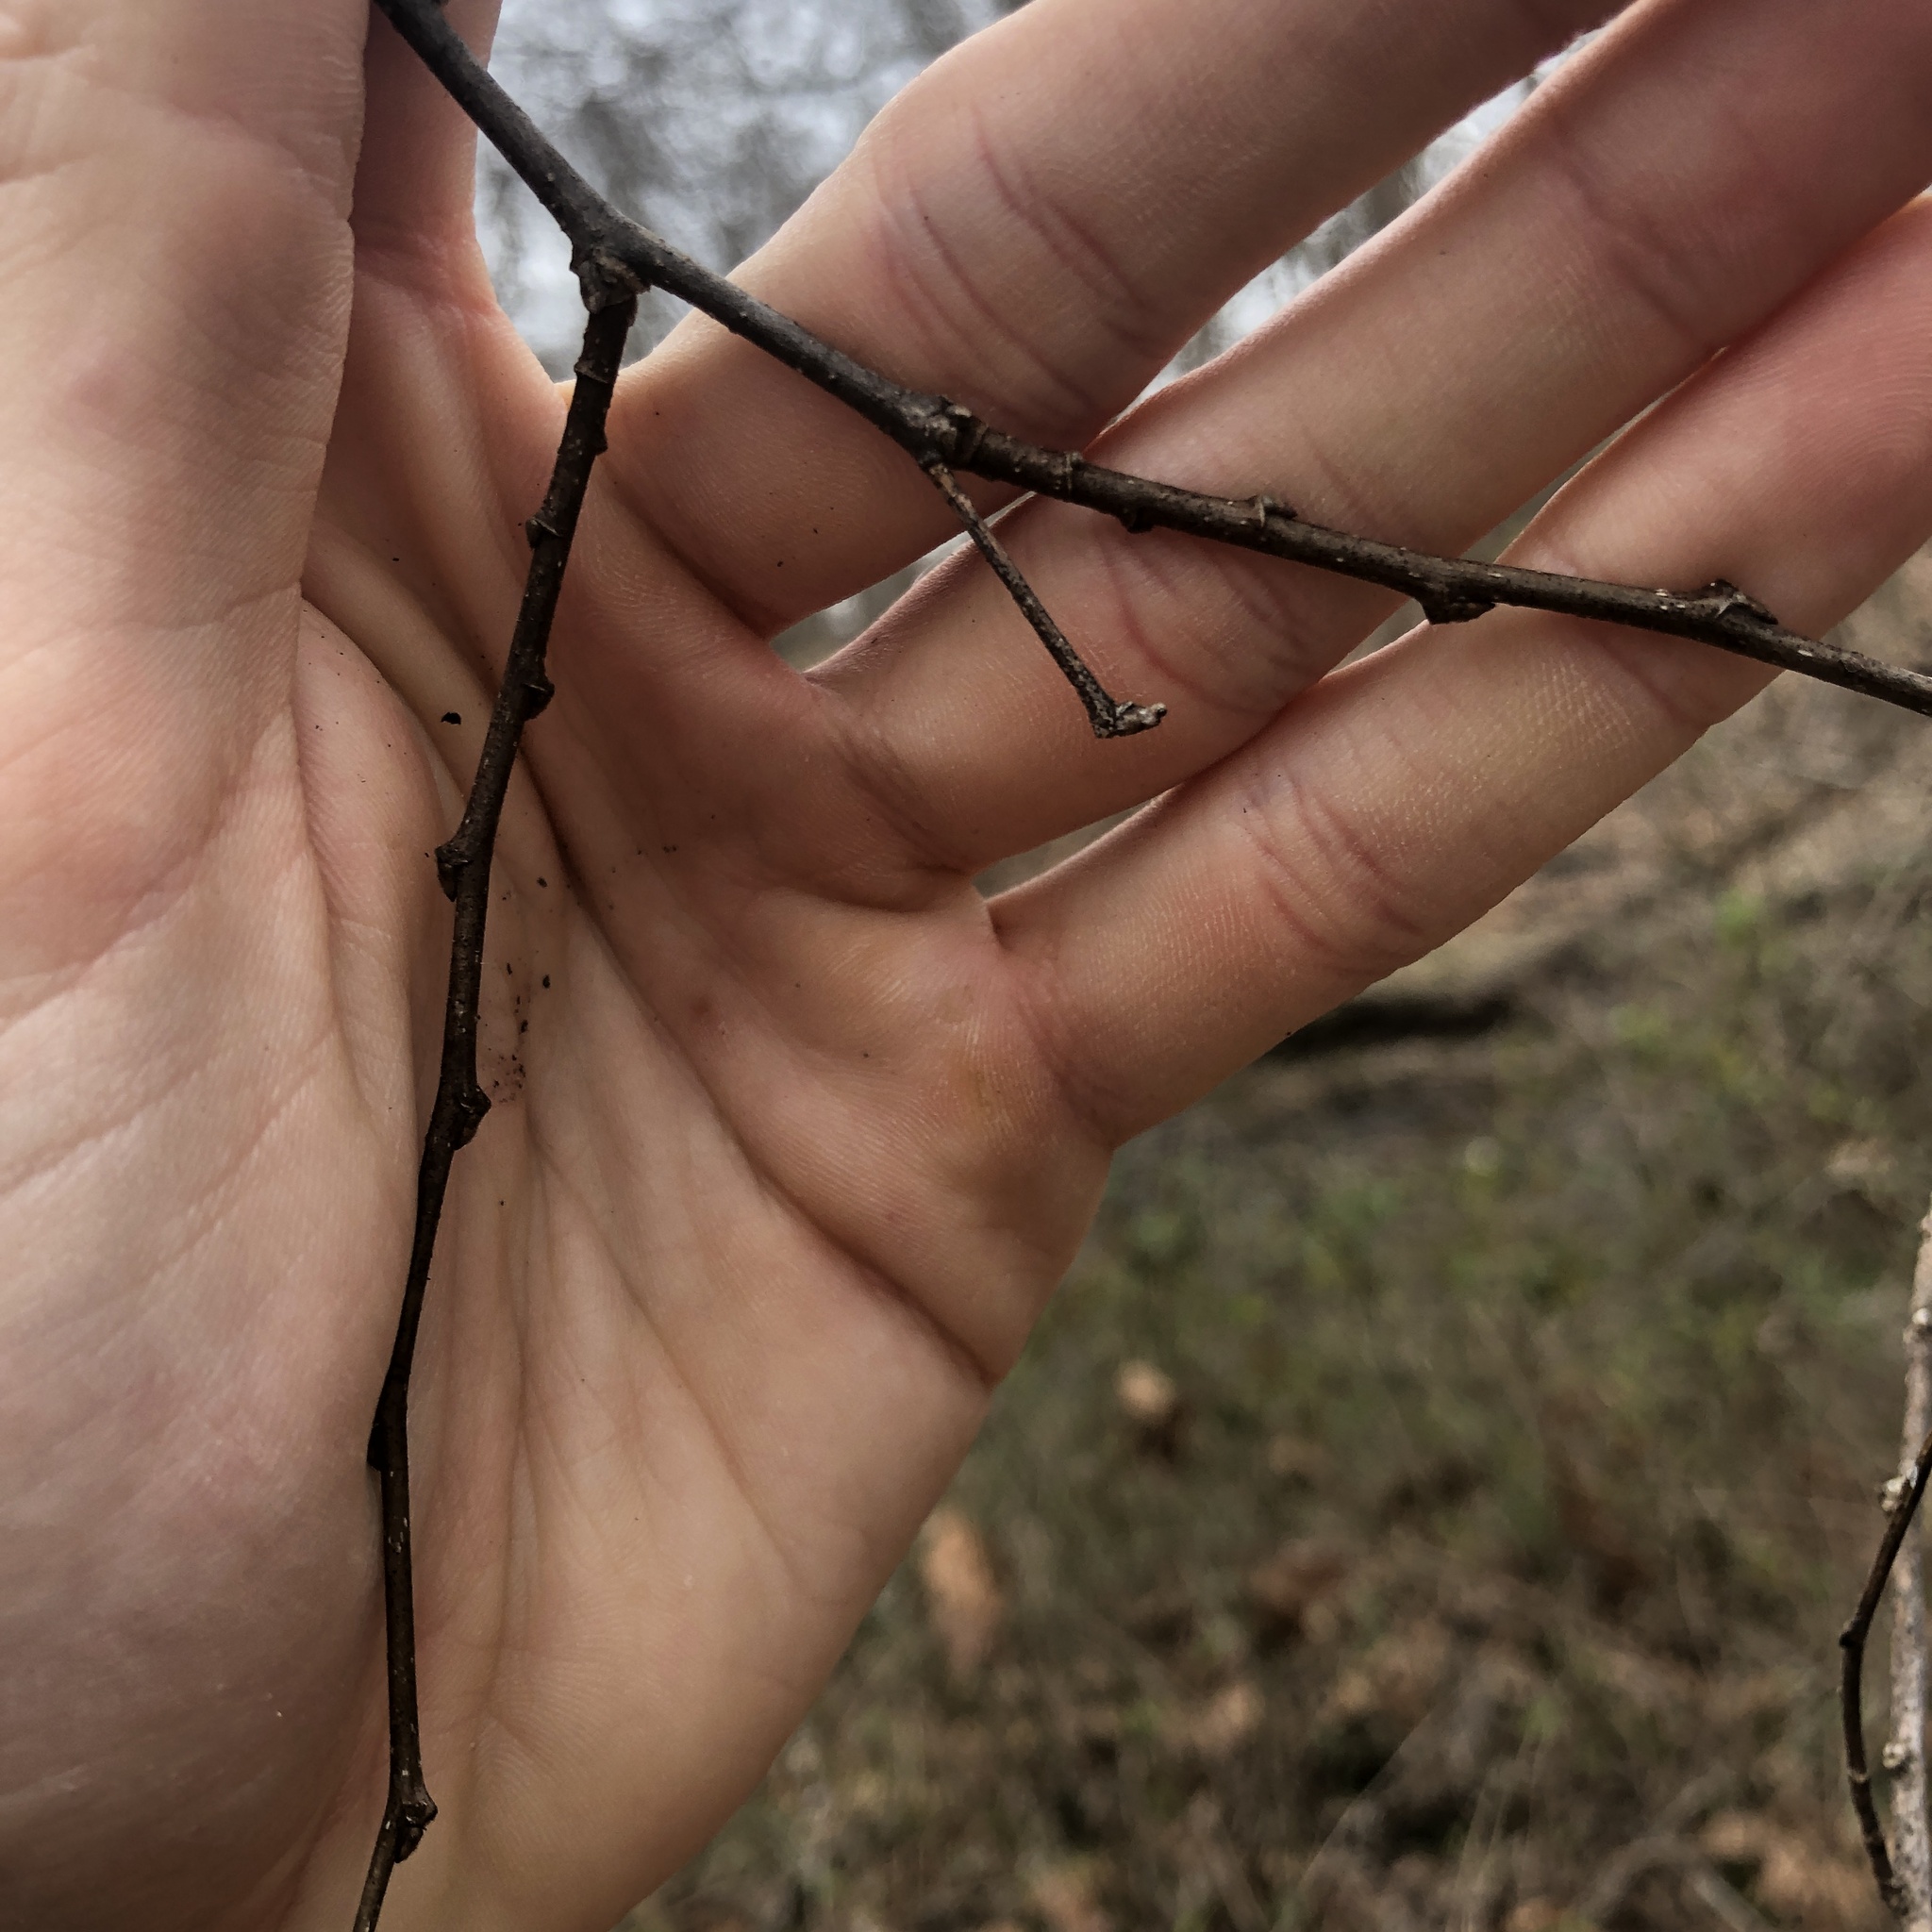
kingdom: Plantae
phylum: Tracheophyta
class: Magnoliopsida
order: Rosales
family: Cannabaceae
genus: Celtis
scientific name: Celtis occidentalis
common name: Common hackberry
